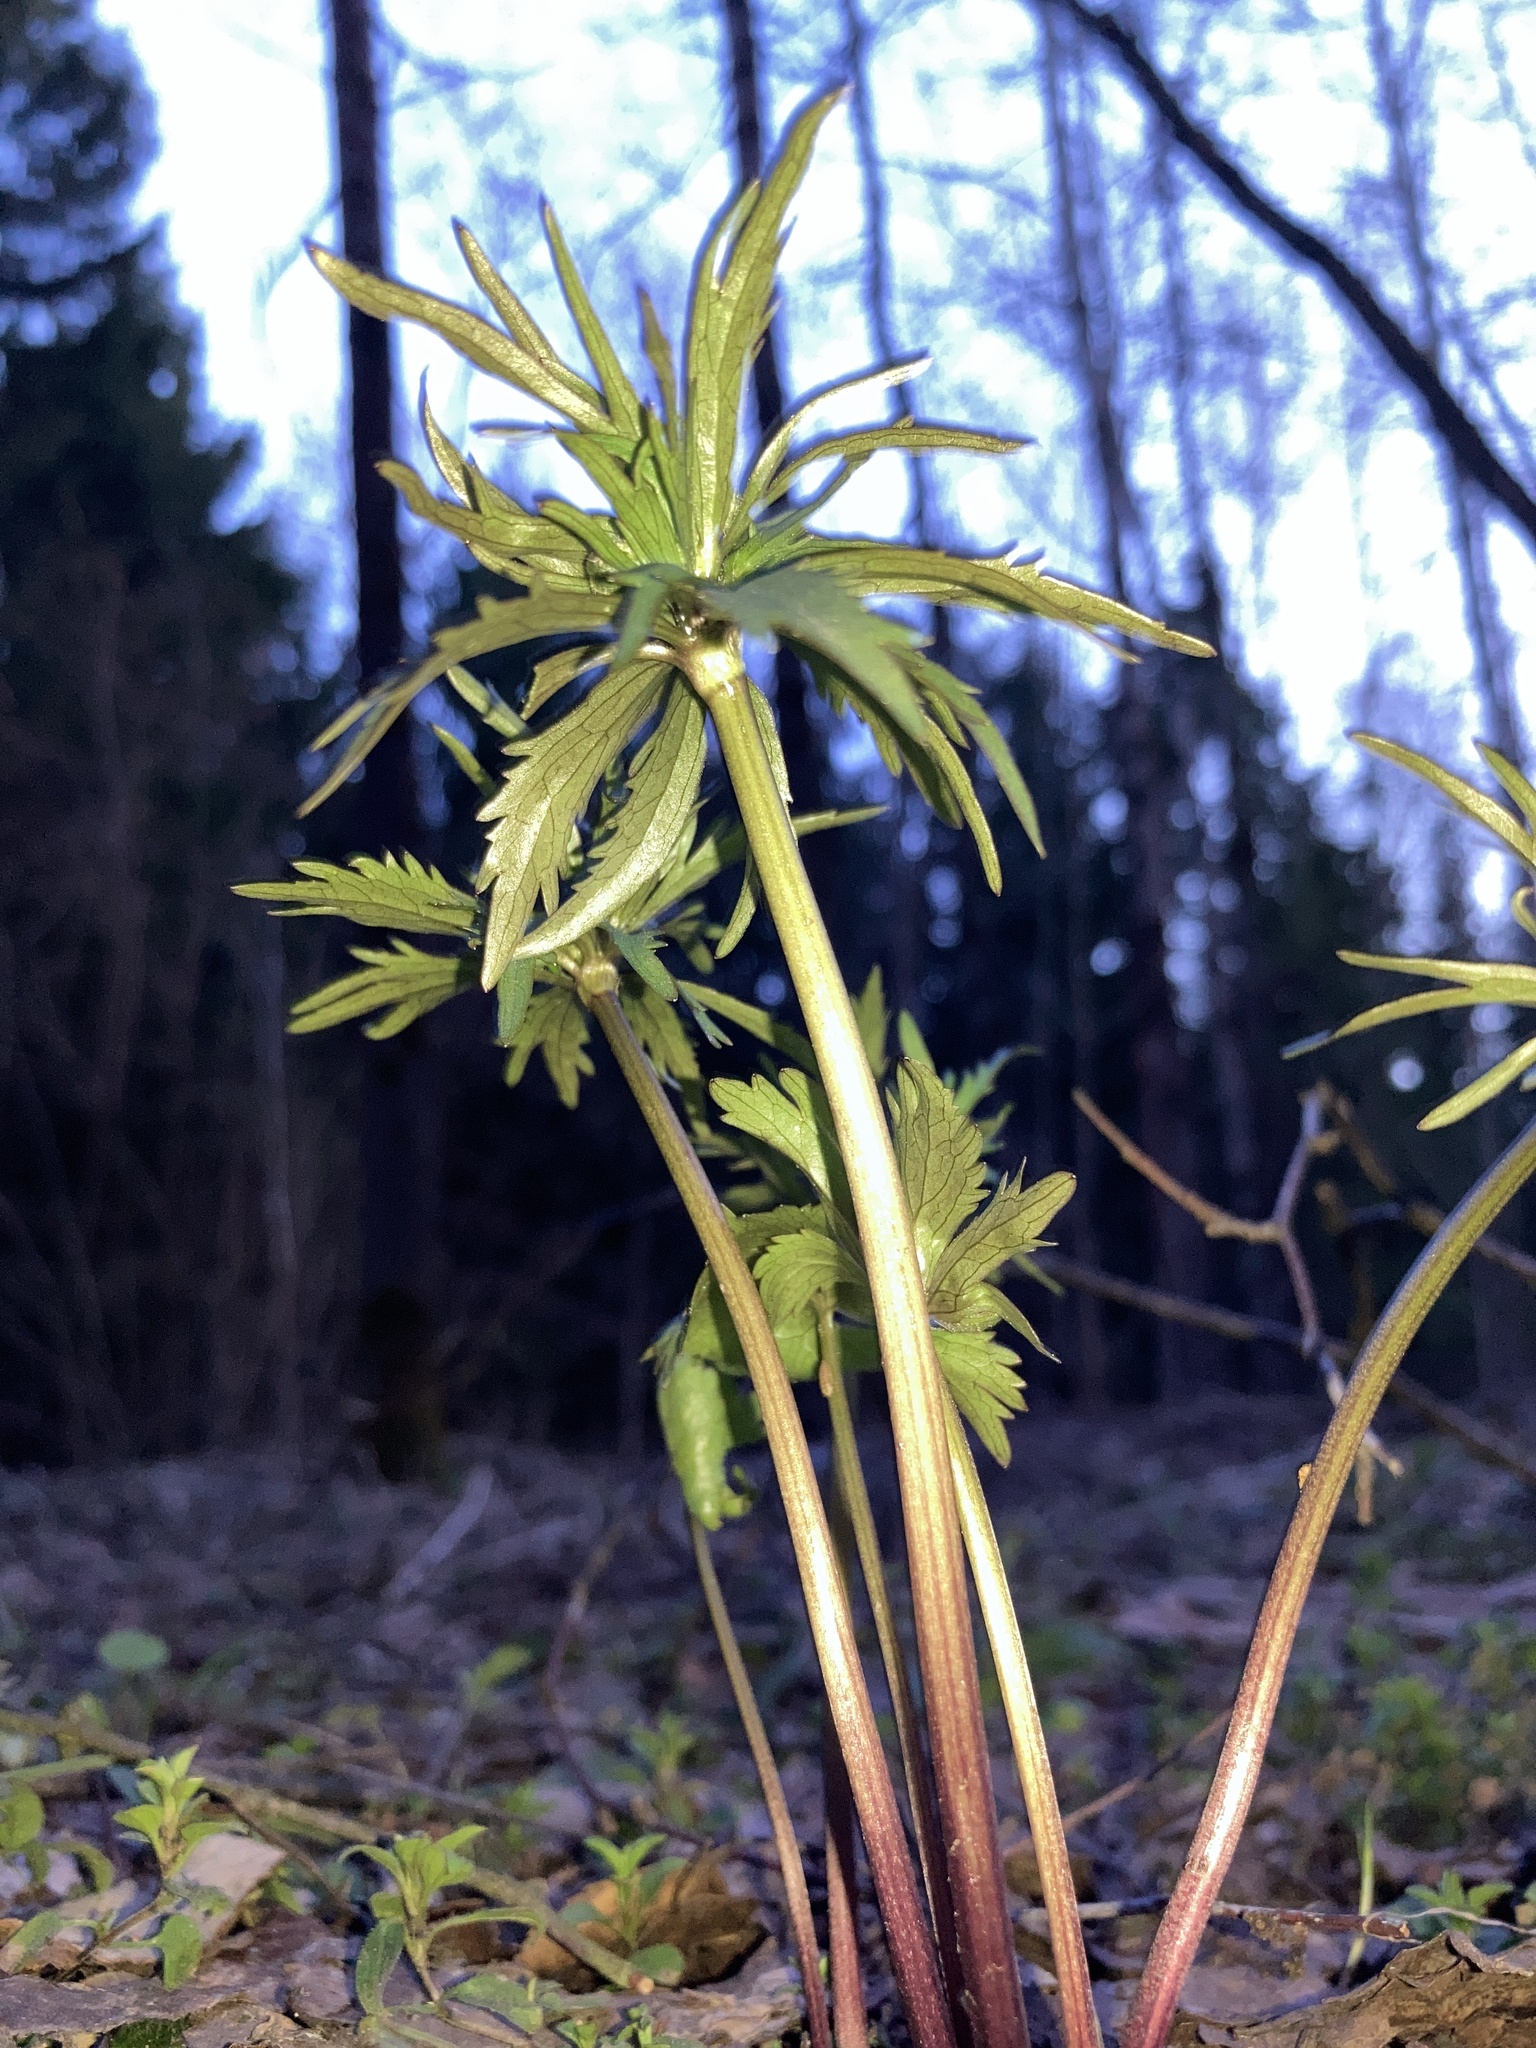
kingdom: Plantae
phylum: Tracheophyta
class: Magnoliopsida
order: Ranunculales
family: Ranunculaceae
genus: Ranunculus
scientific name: Ranunculus cassubicus
